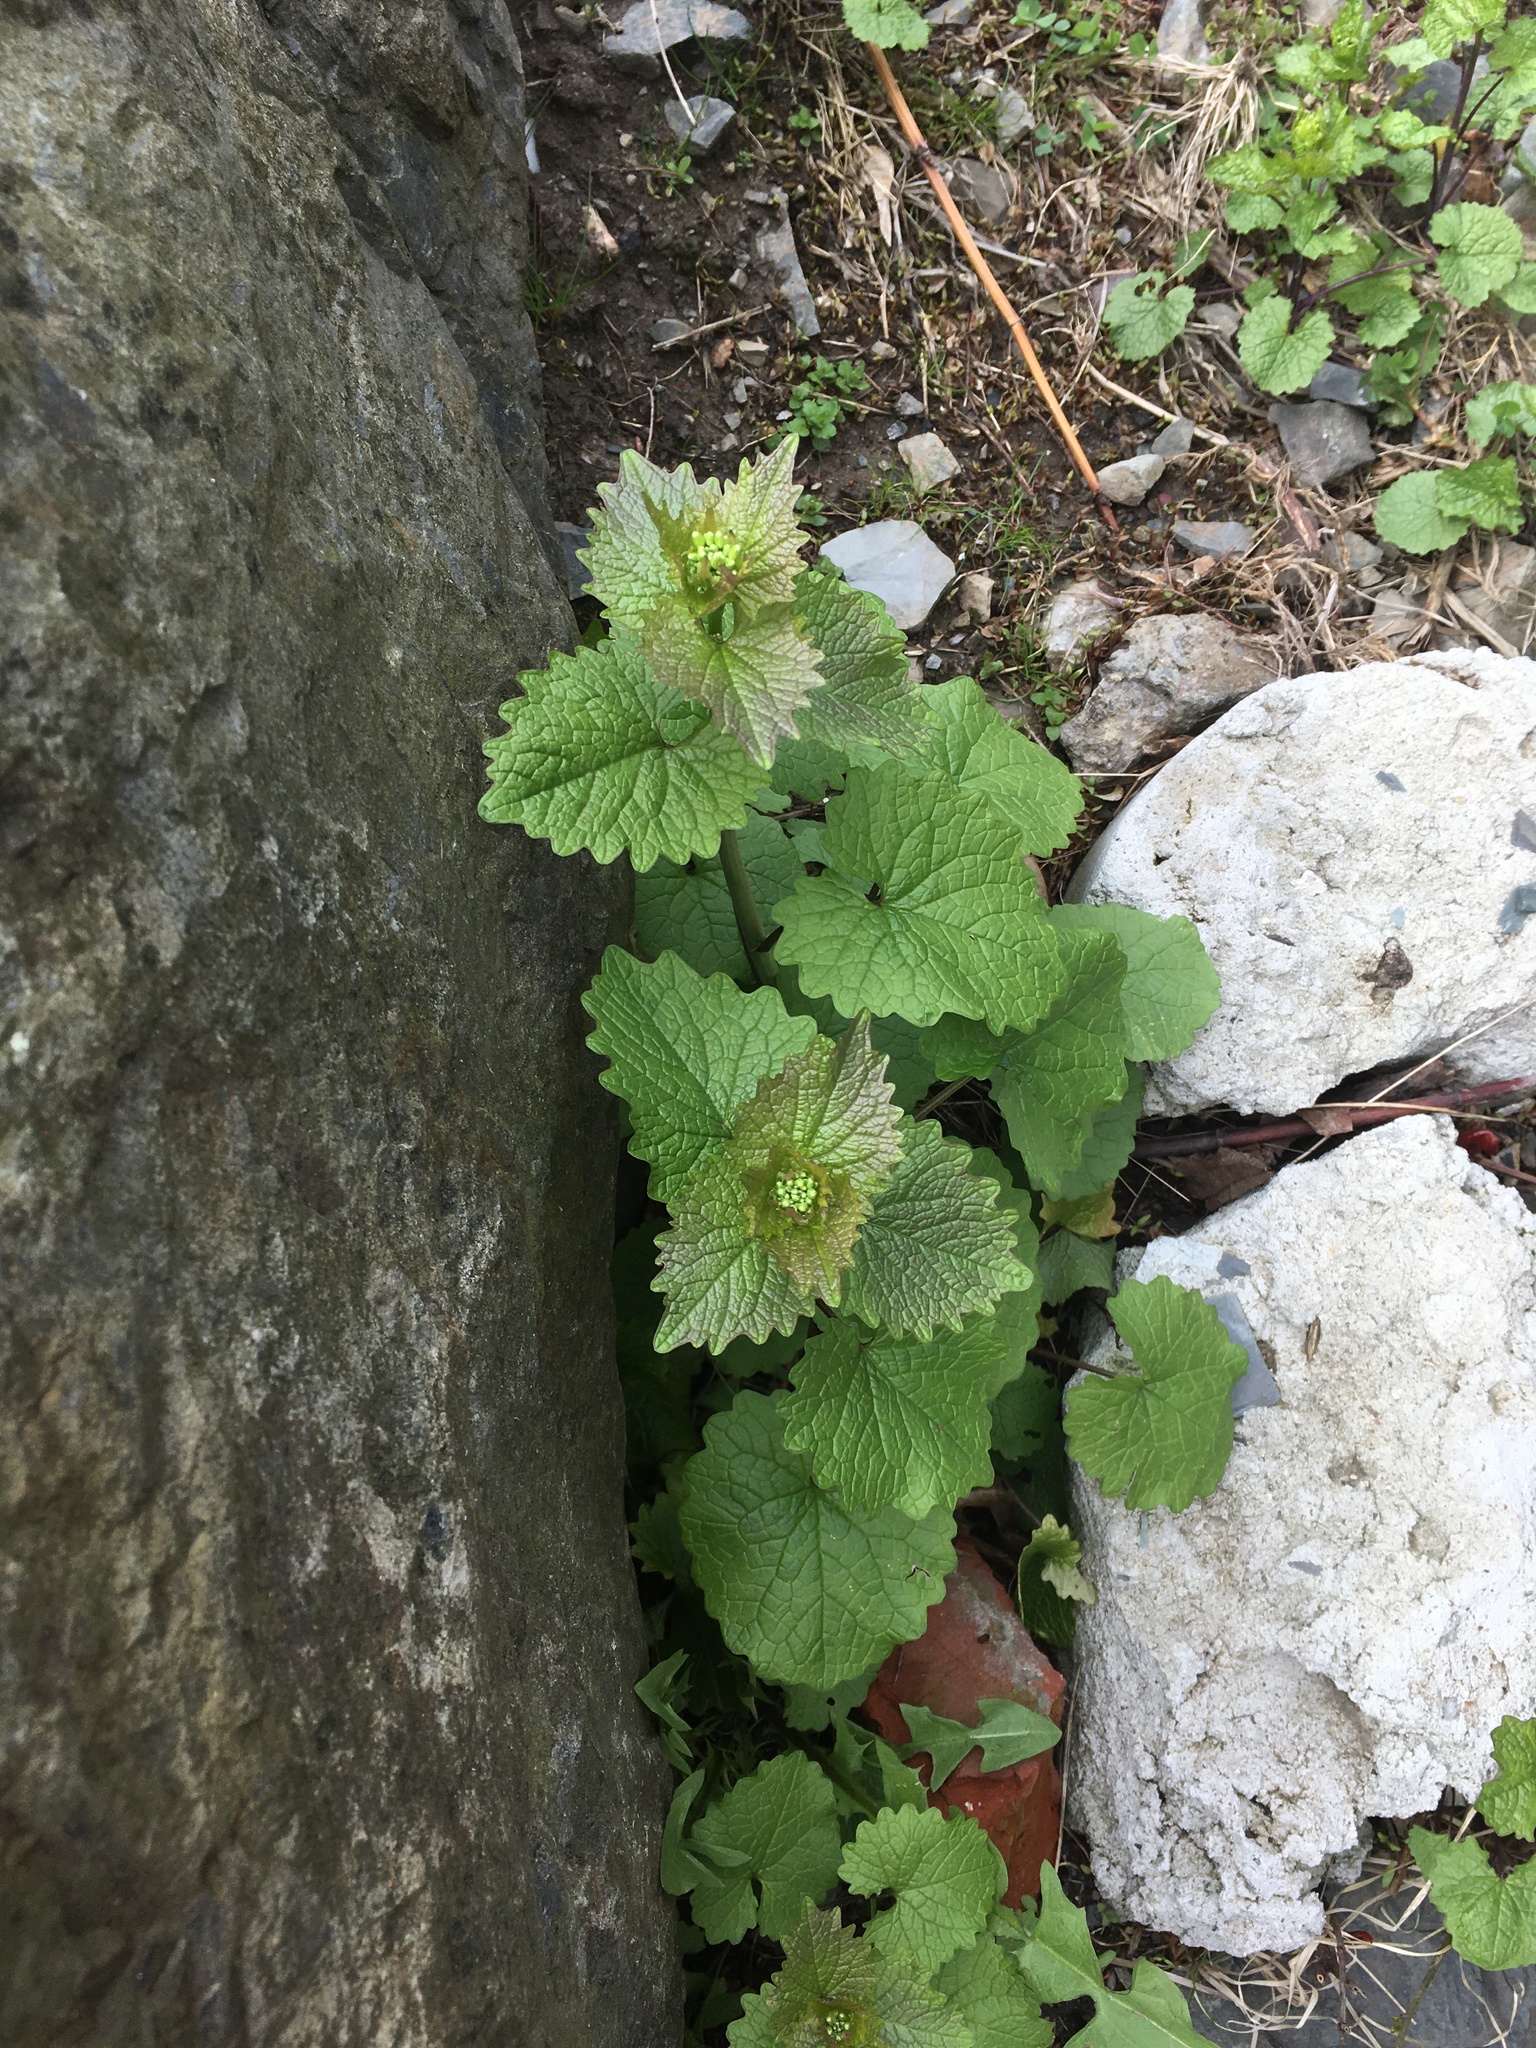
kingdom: Plantae
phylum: Tracheophyta
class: Magnoliopsida
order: Brassicales
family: Brassicaceae
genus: Alliaria
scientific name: Alliaria petiolata
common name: Garlic mustard
